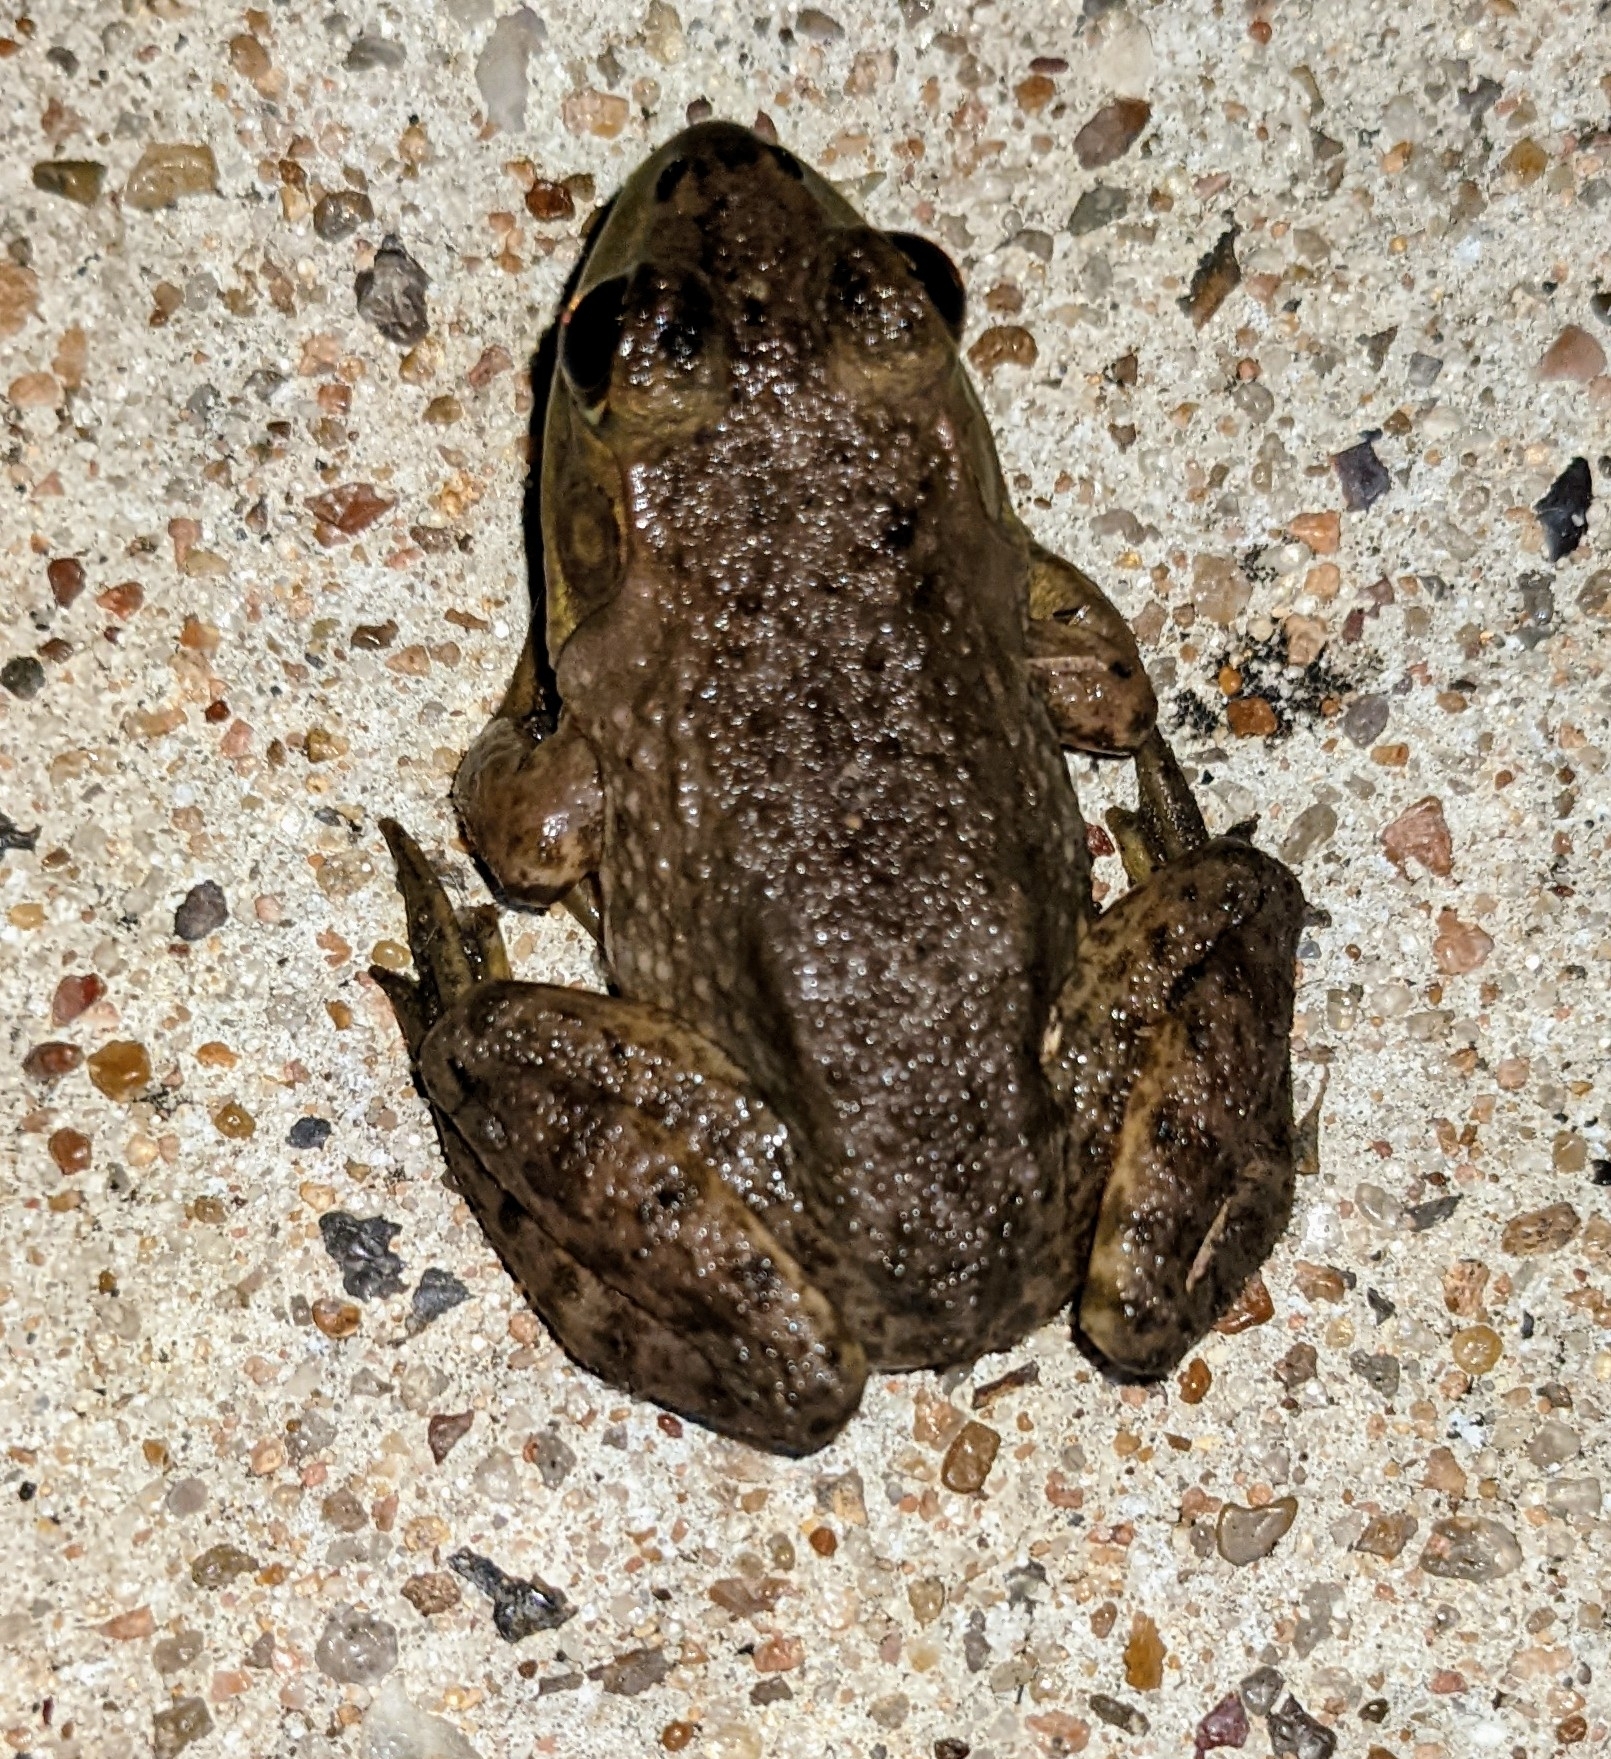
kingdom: Animalia
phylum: Chordata
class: Amphibia
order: Anura
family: Ranidae
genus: Lithobates
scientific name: Lithobates catesbeianus
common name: American bullfrog
